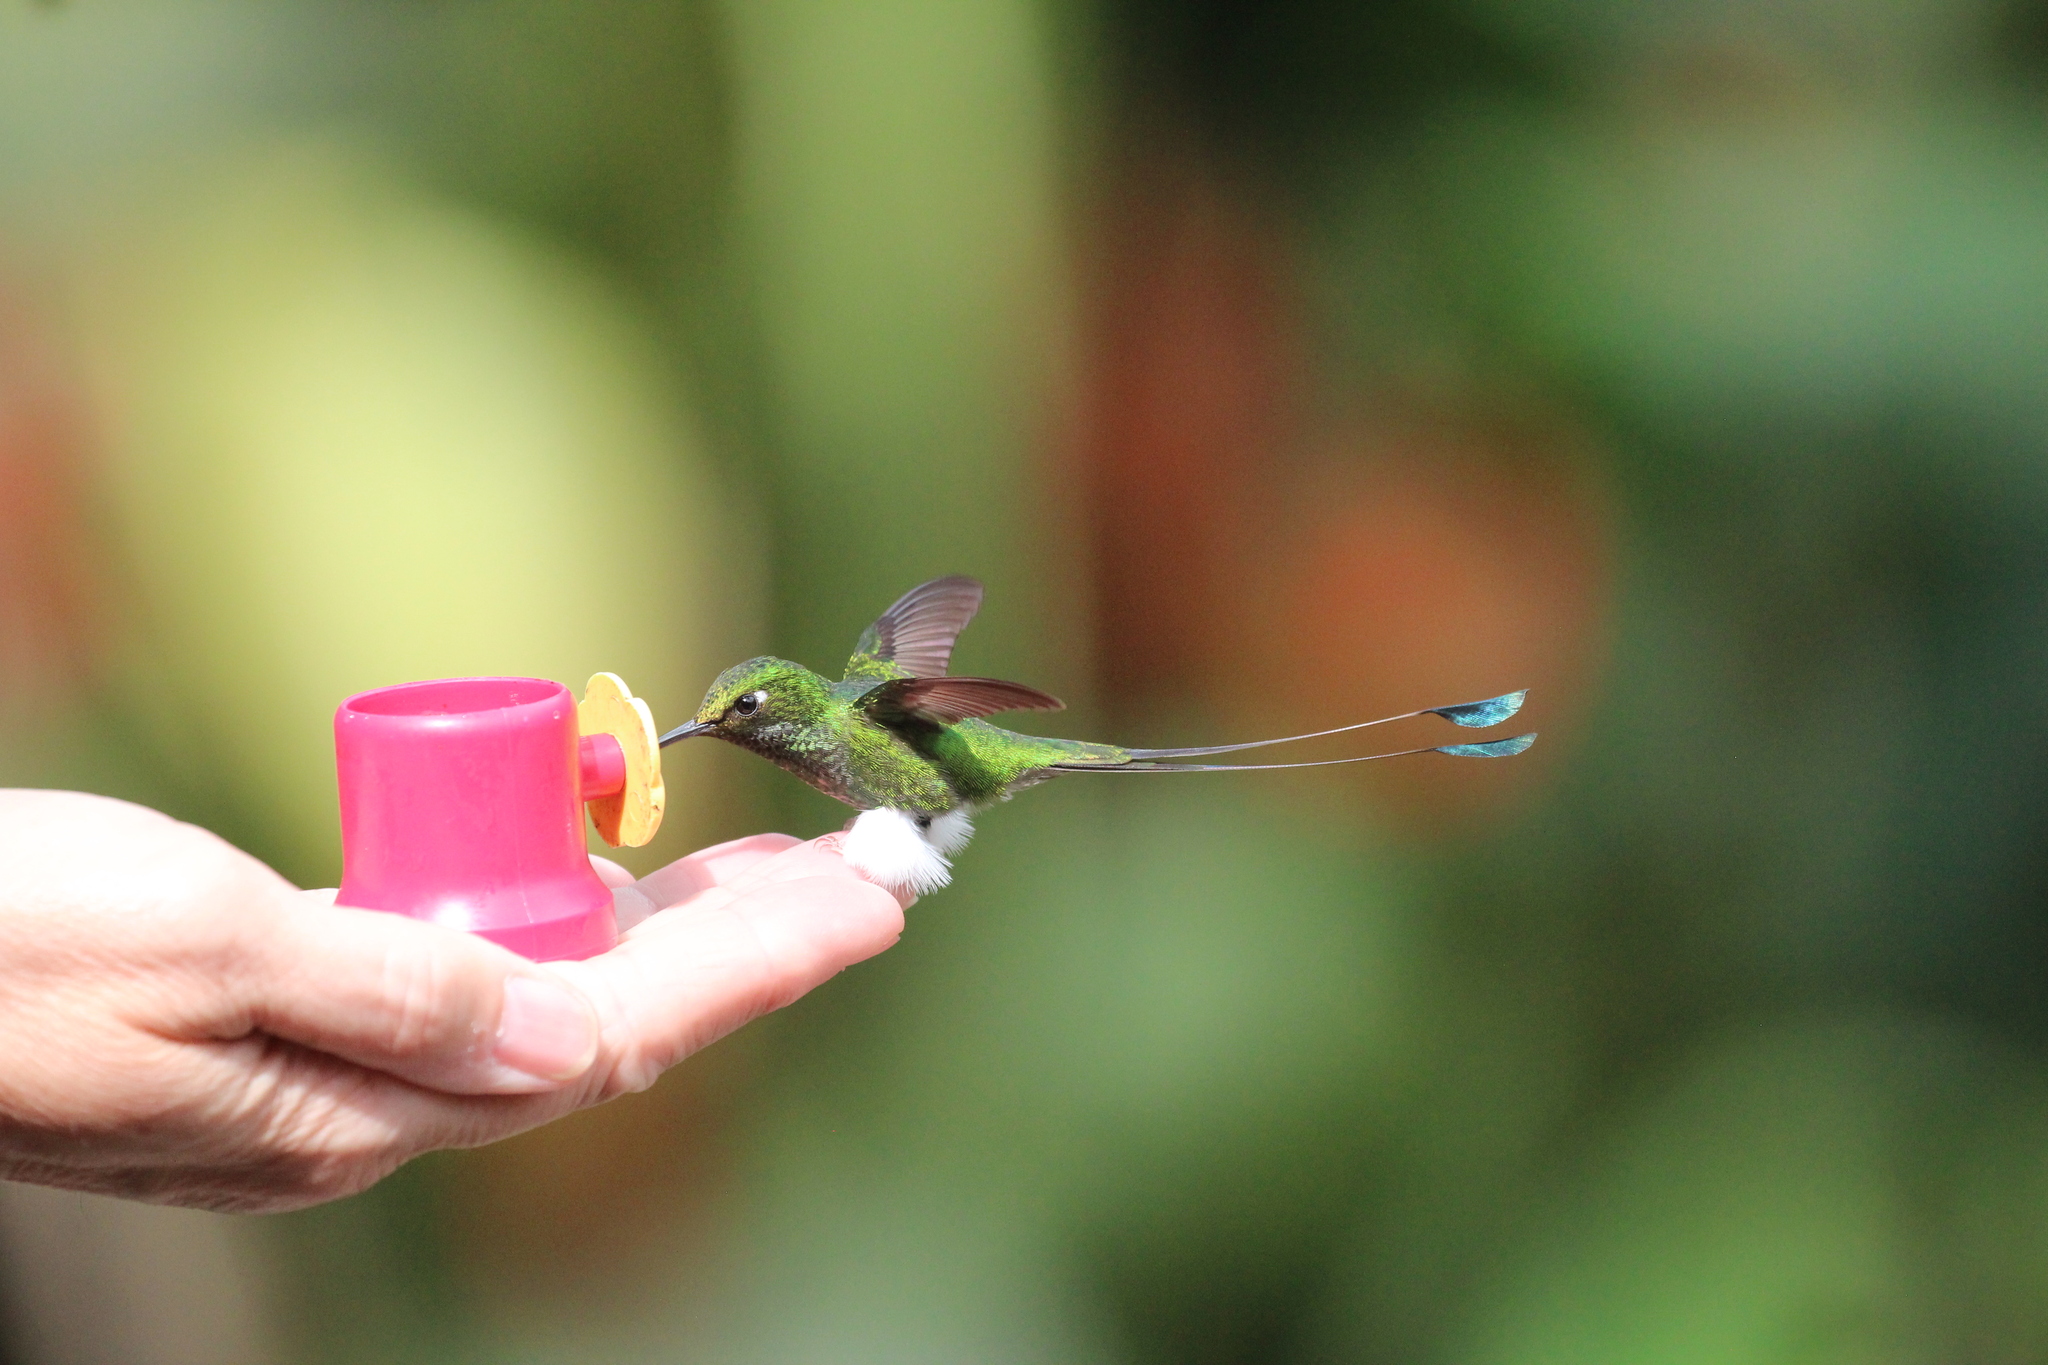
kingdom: Animalia
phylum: Chordata
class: Aves
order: Apodiformes
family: Trochilidae
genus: Ocreatus
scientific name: Ocreatus underwoodii
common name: Booted racket-tail
